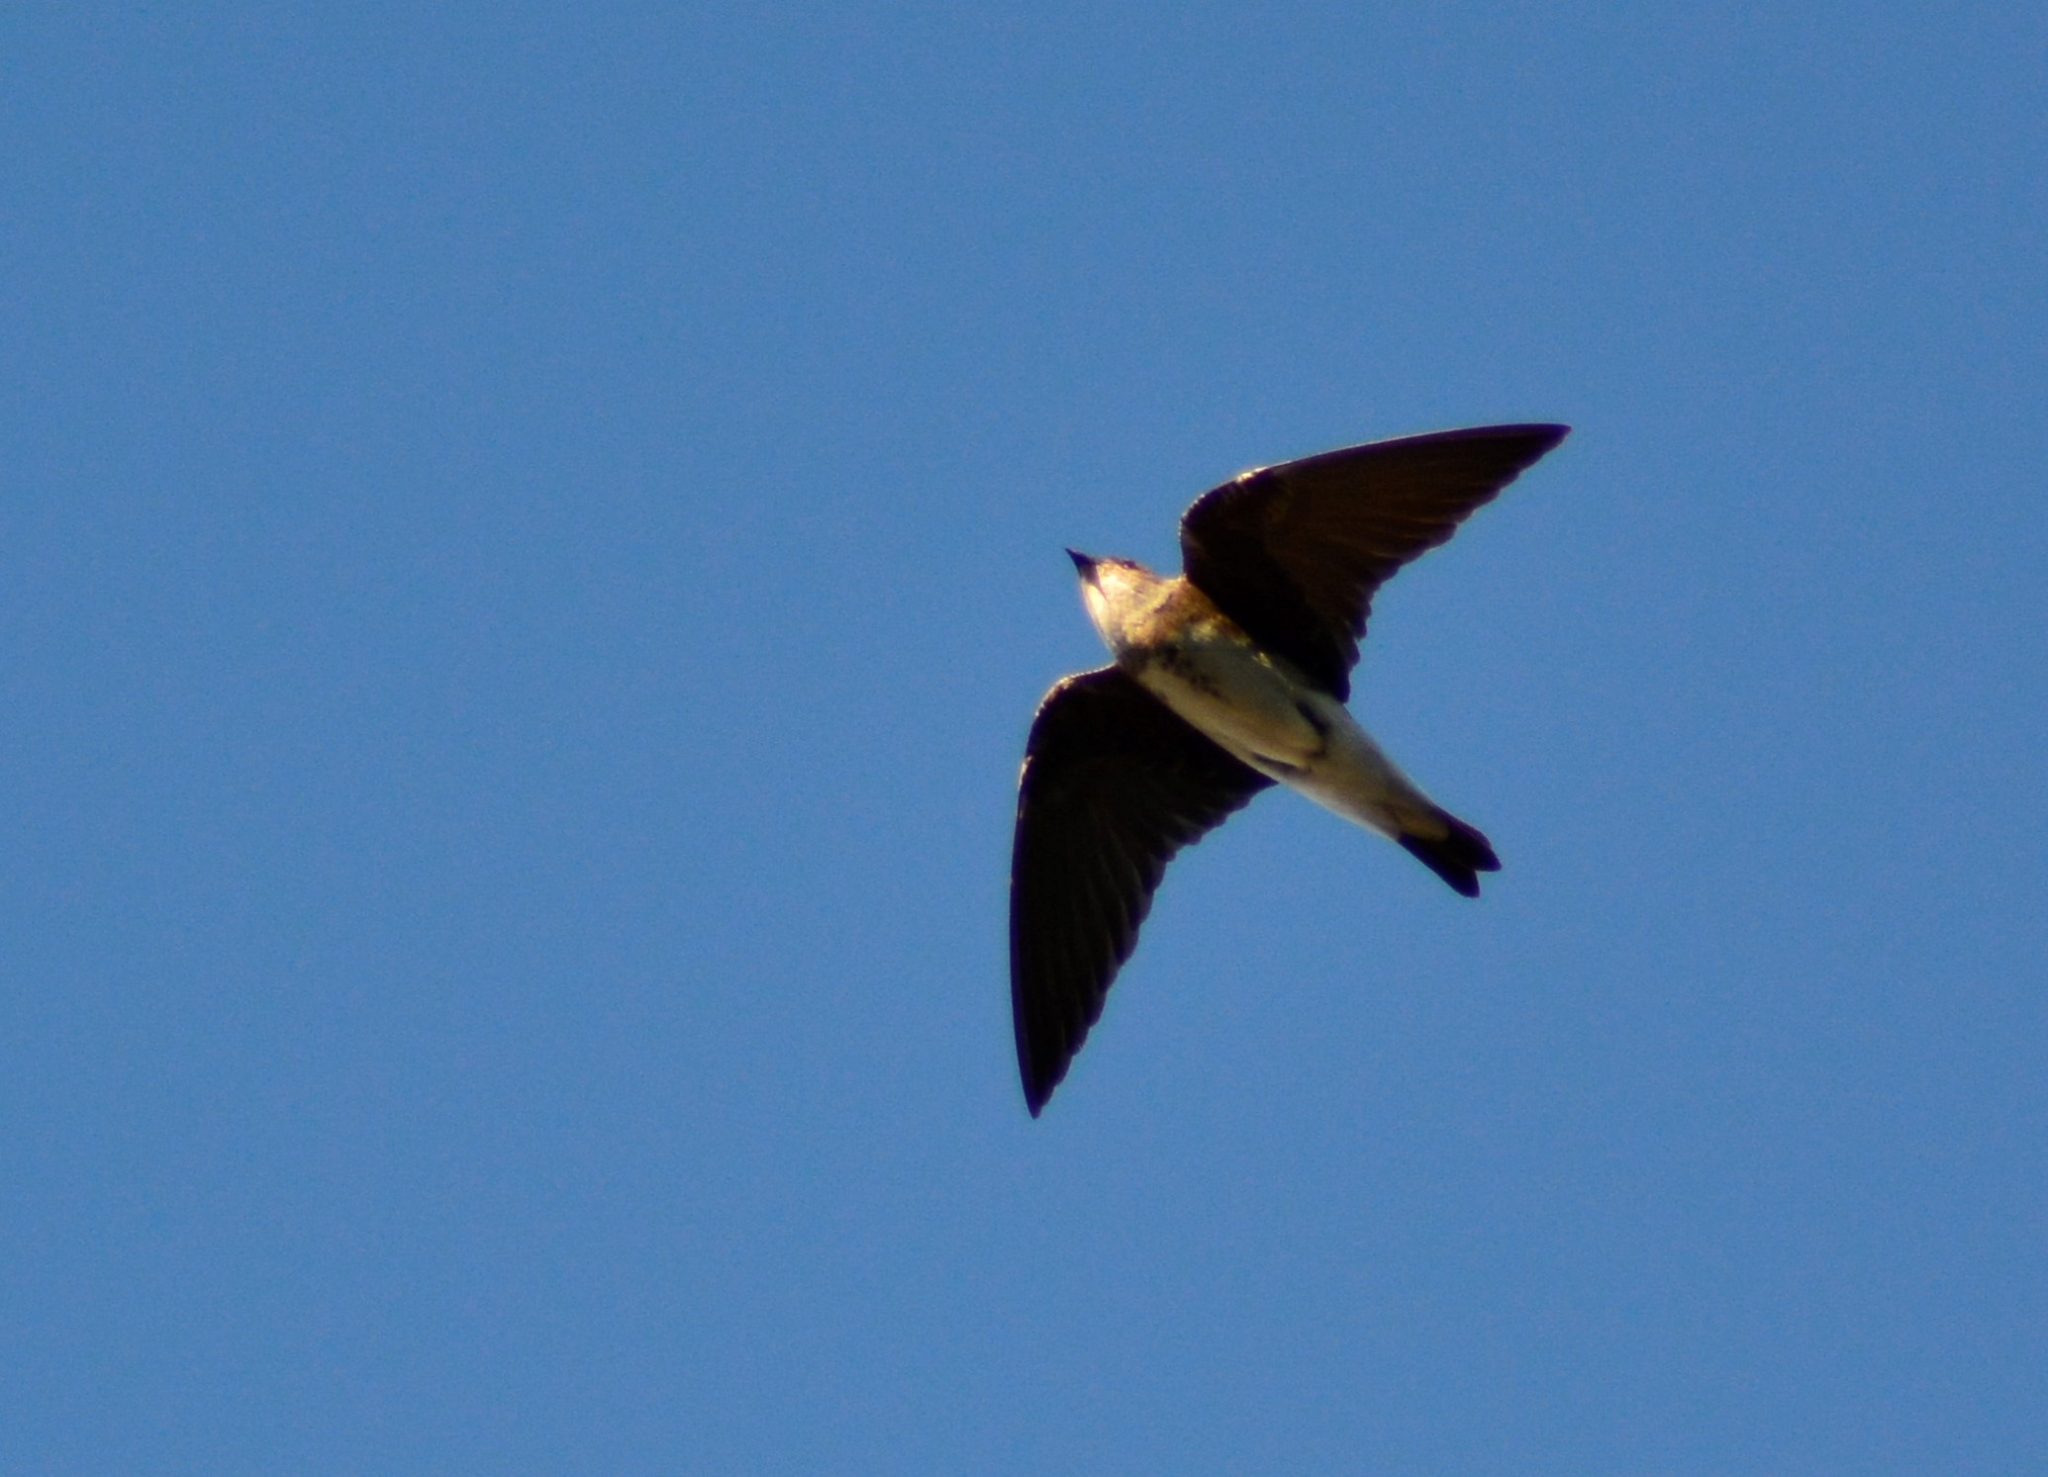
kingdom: Animalia
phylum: Chordata
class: Aves
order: Passeriformes
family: Hirundinidae
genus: Progne
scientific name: Progne tapera
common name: Brown-chested martin
